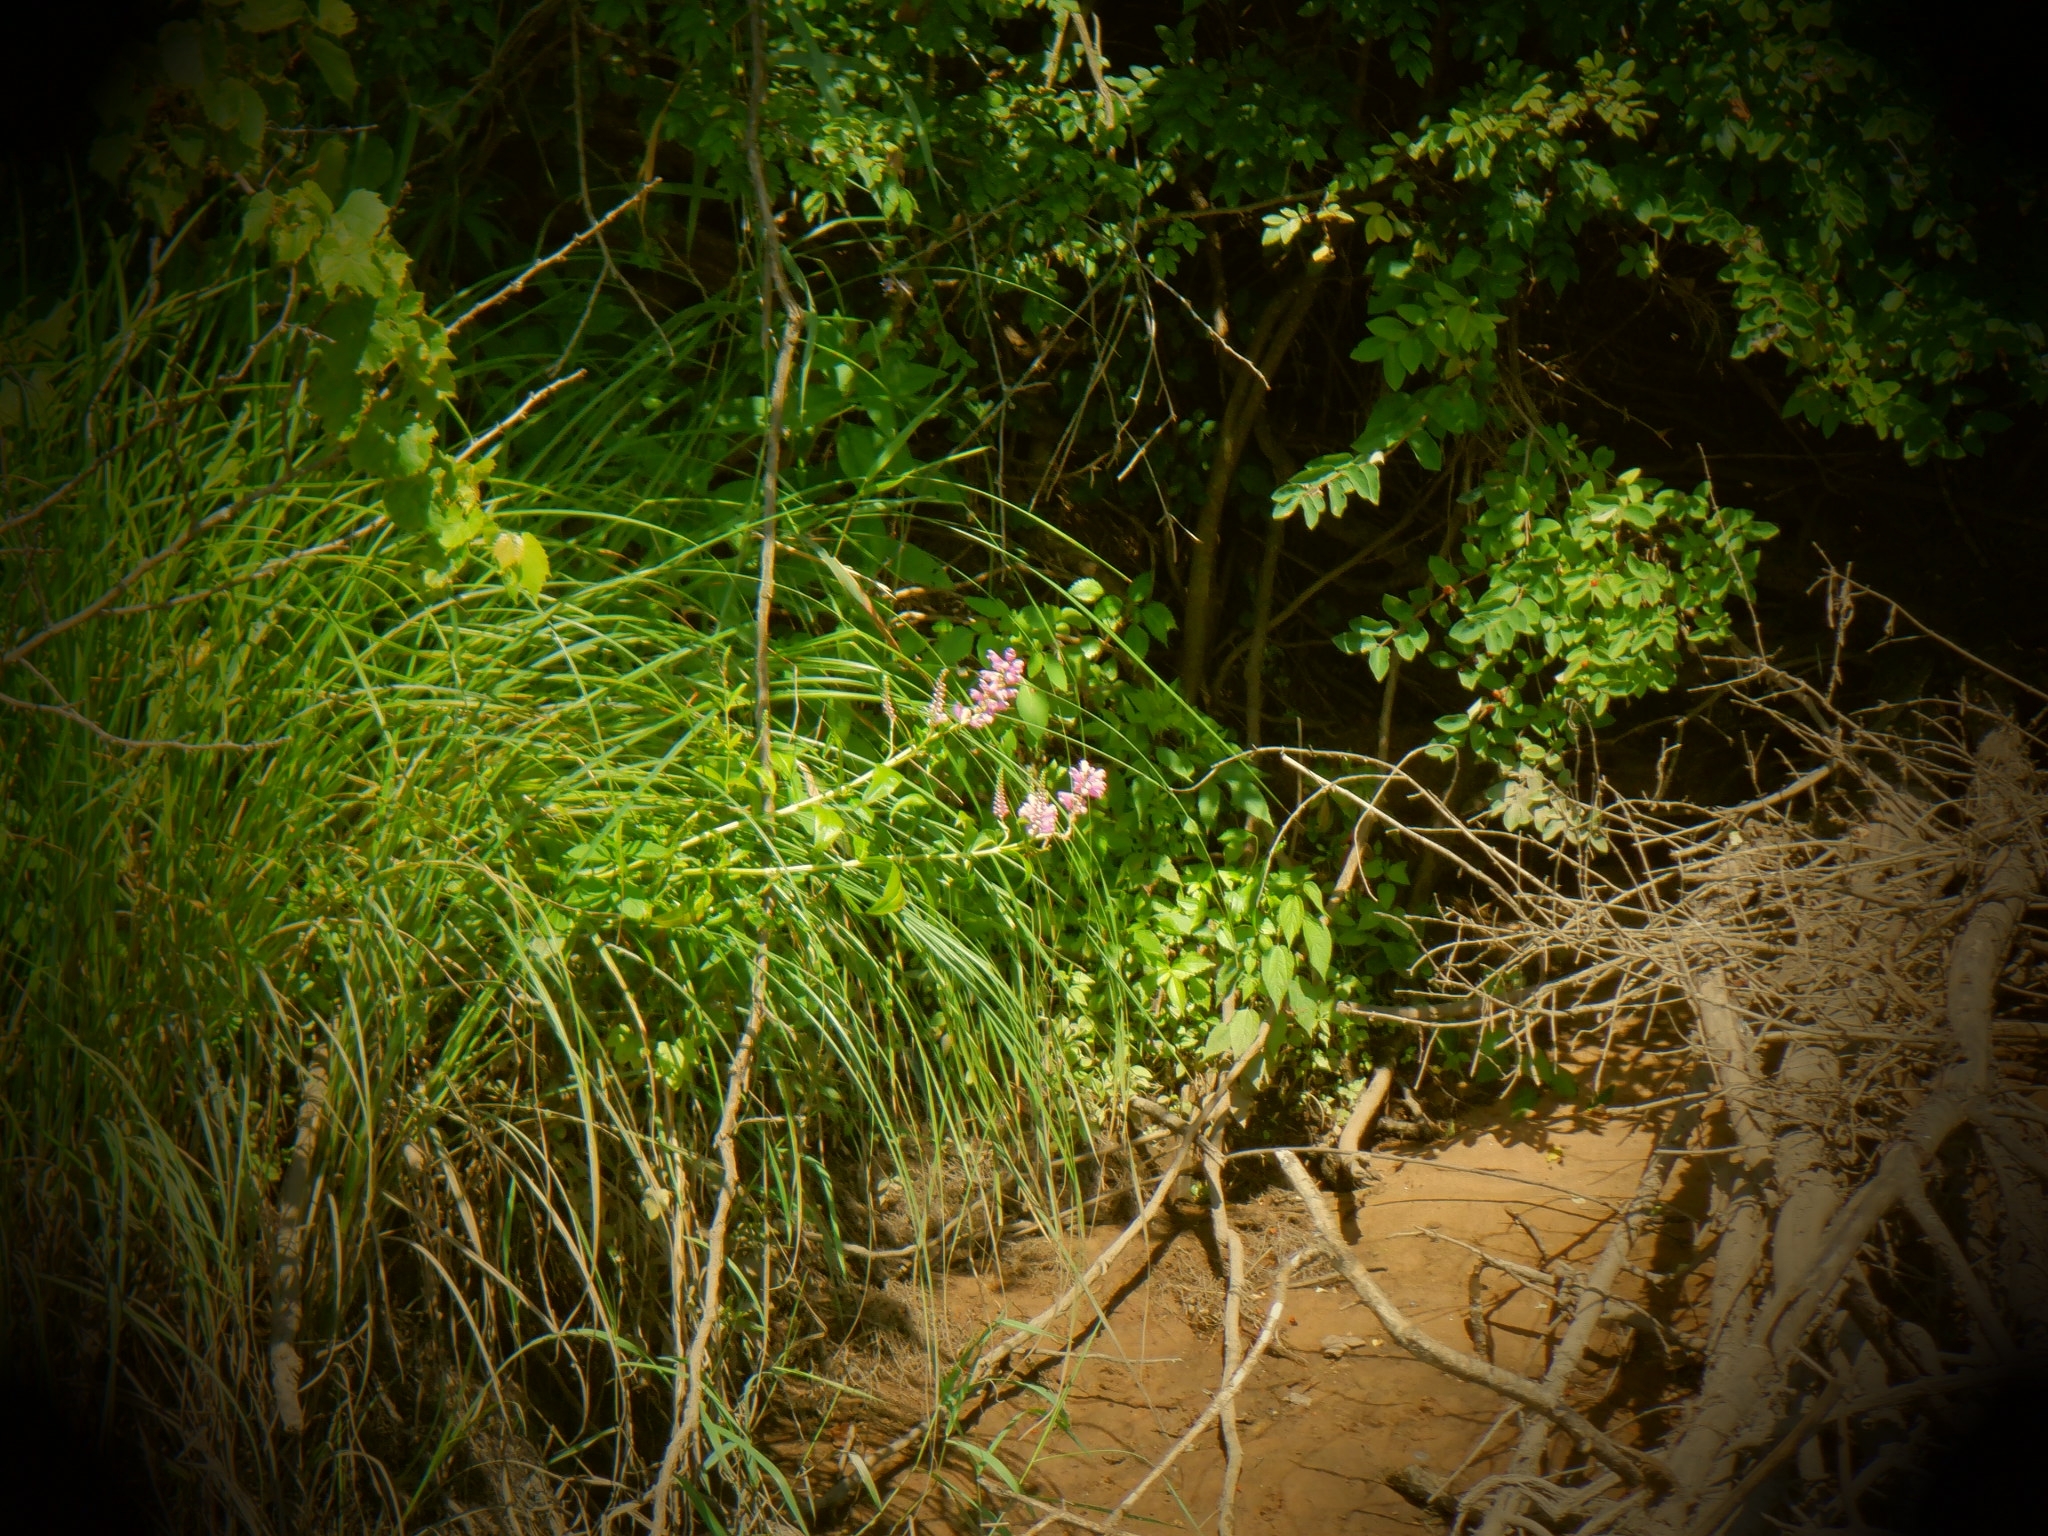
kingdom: Plantae
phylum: Tracheophyta
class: Magnoliopsida
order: Lamiales
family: Lamiaceae
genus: Physostegia
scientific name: Physostegia virginiana
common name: Obedient-plant
